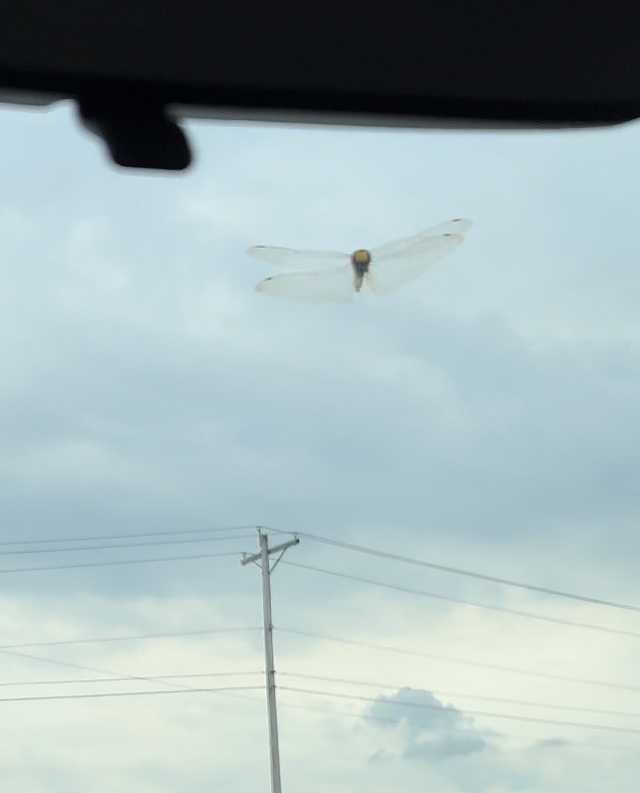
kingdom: Animalia
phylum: Arthropoda
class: Insecta
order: Odonata
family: Libellulidae
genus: Pantala
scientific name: Pantala flavescens
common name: Wandering glider
